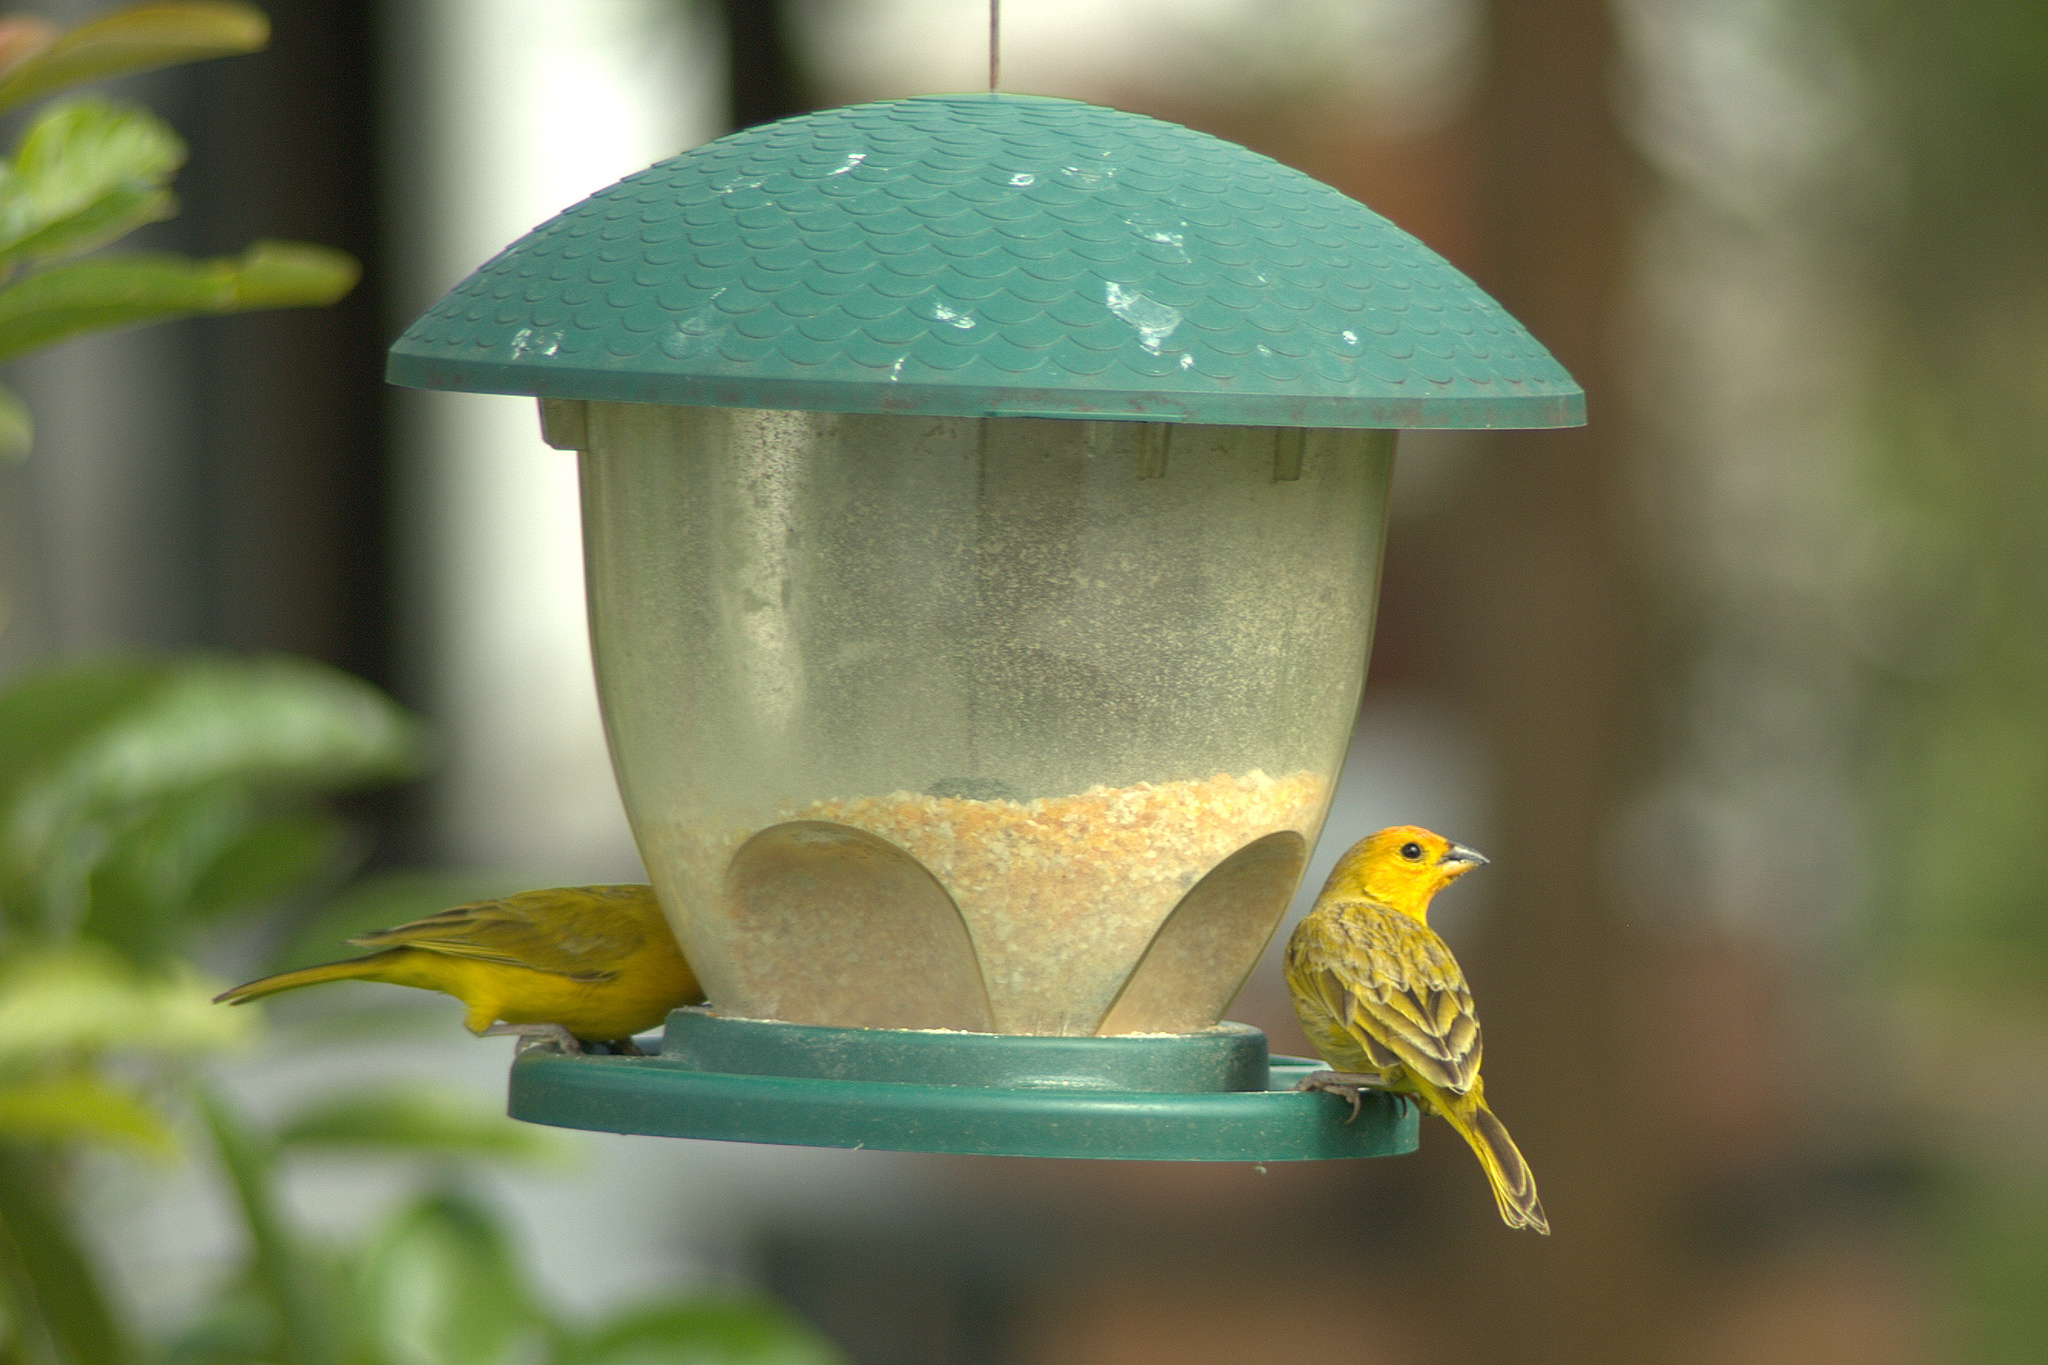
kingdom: Animalia
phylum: Chordata
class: Aves
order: Passeriformes
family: Thraupidae
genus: Sicalis
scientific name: Sicalis flaveola
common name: Saffron finch
